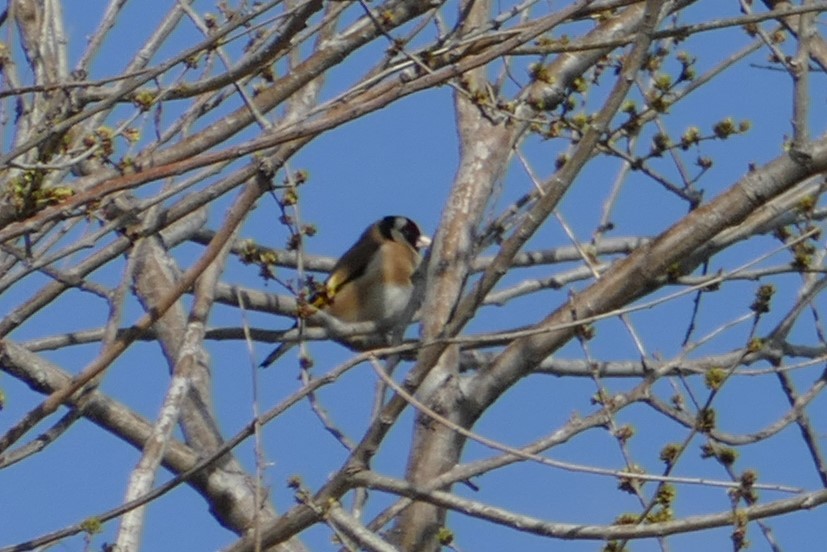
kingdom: Animalia
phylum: Chordata
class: Aves
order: Passeriformes
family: Fringillidae
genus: Carduelis
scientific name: Carduelis carduelis
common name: European goldfinch
